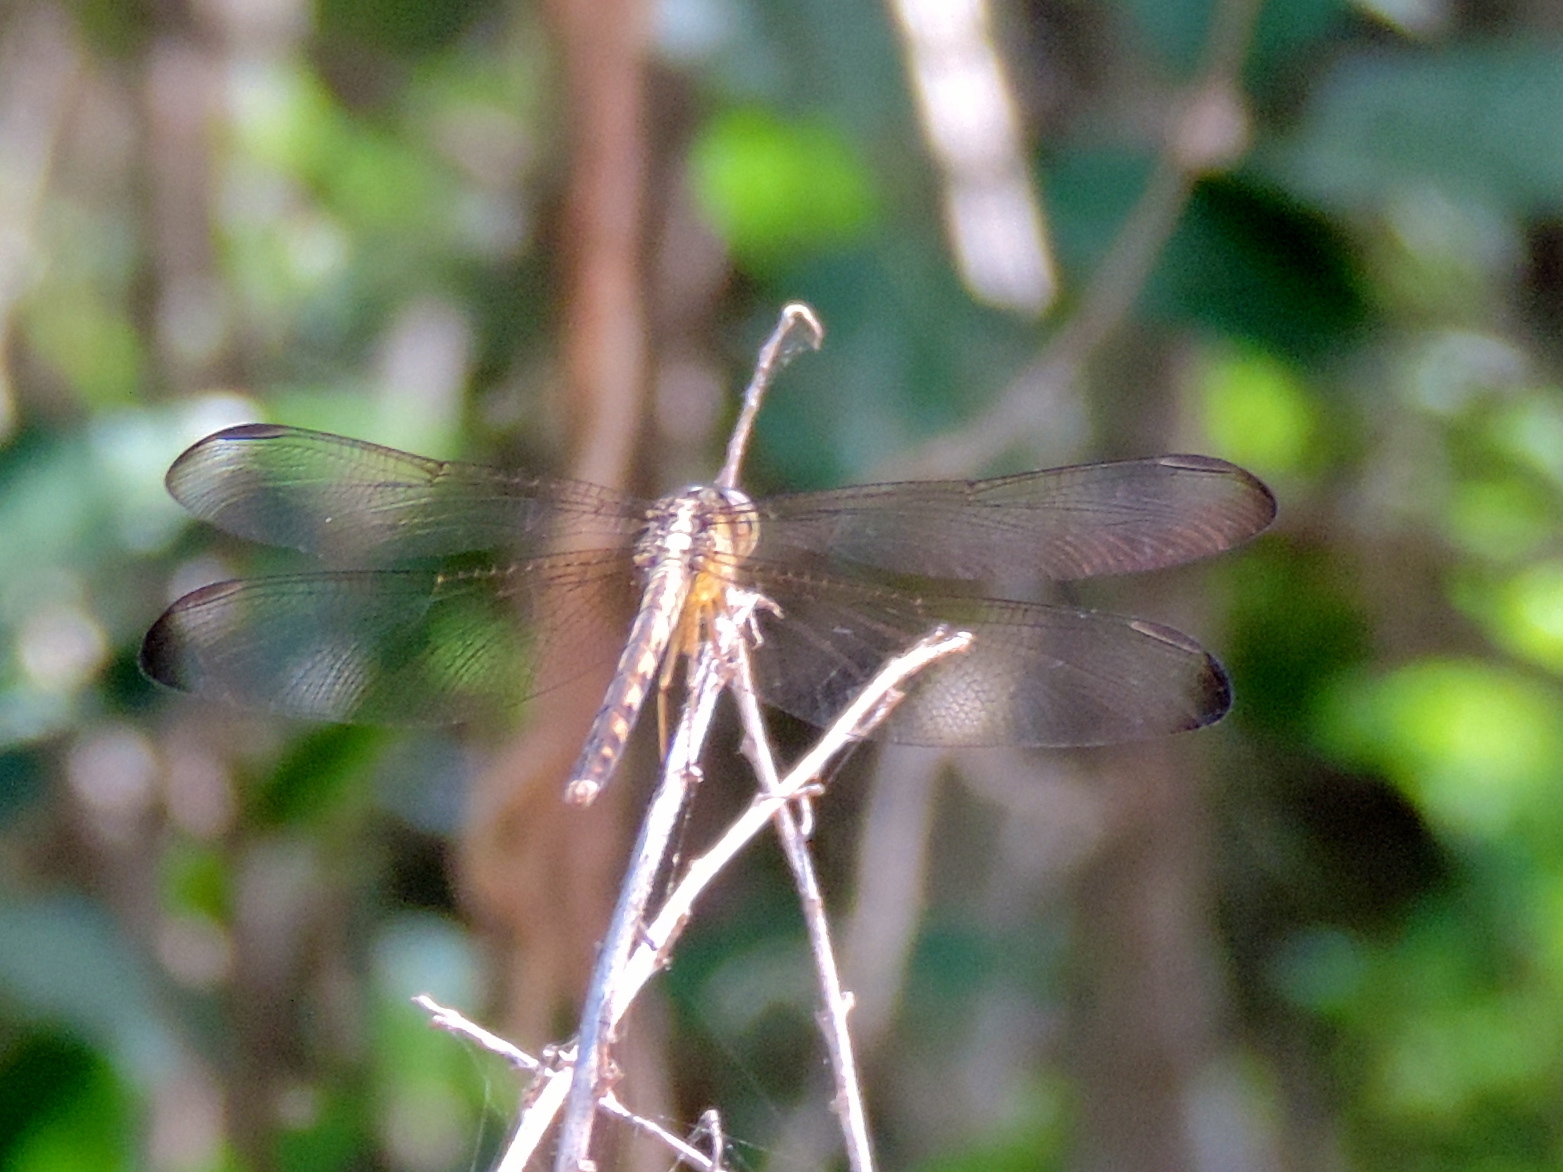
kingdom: Animalia
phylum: Arthropoda
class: Insecta
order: Odonata
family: Libellulidae
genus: Erythrodiplax
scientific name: Erythrodiplax
